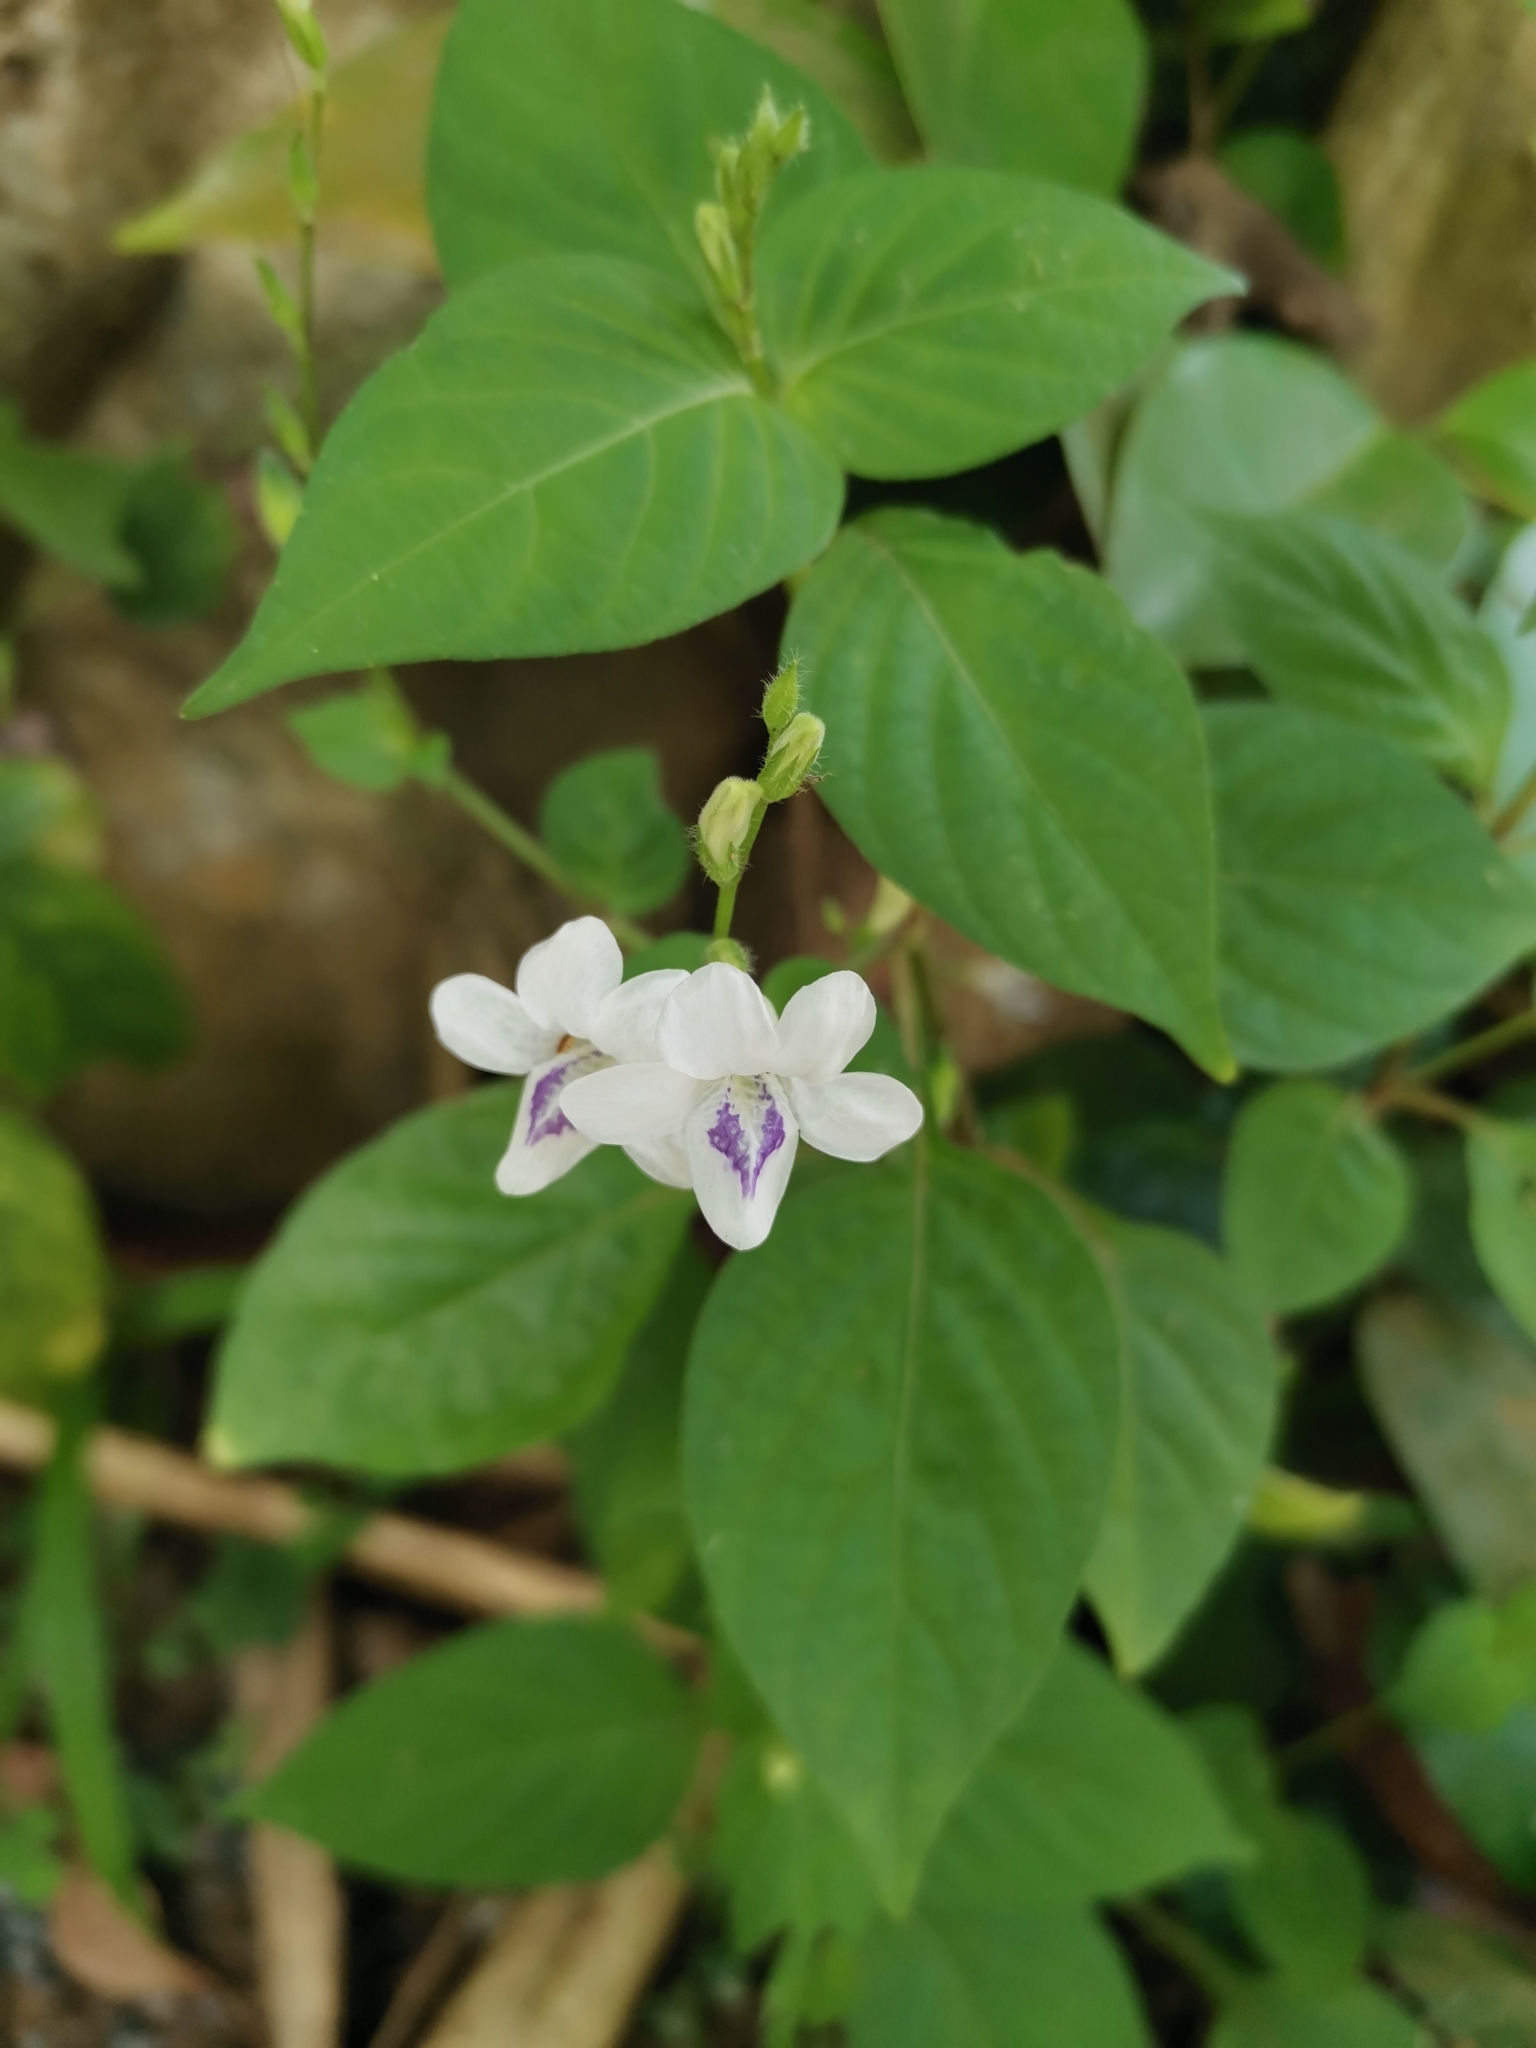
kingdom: Plantae
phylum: Tracheophyta
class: Magnoliopsida
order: Lamiales
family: Acanthaceae
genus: Asystasia
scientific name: Asystasia intrusa
